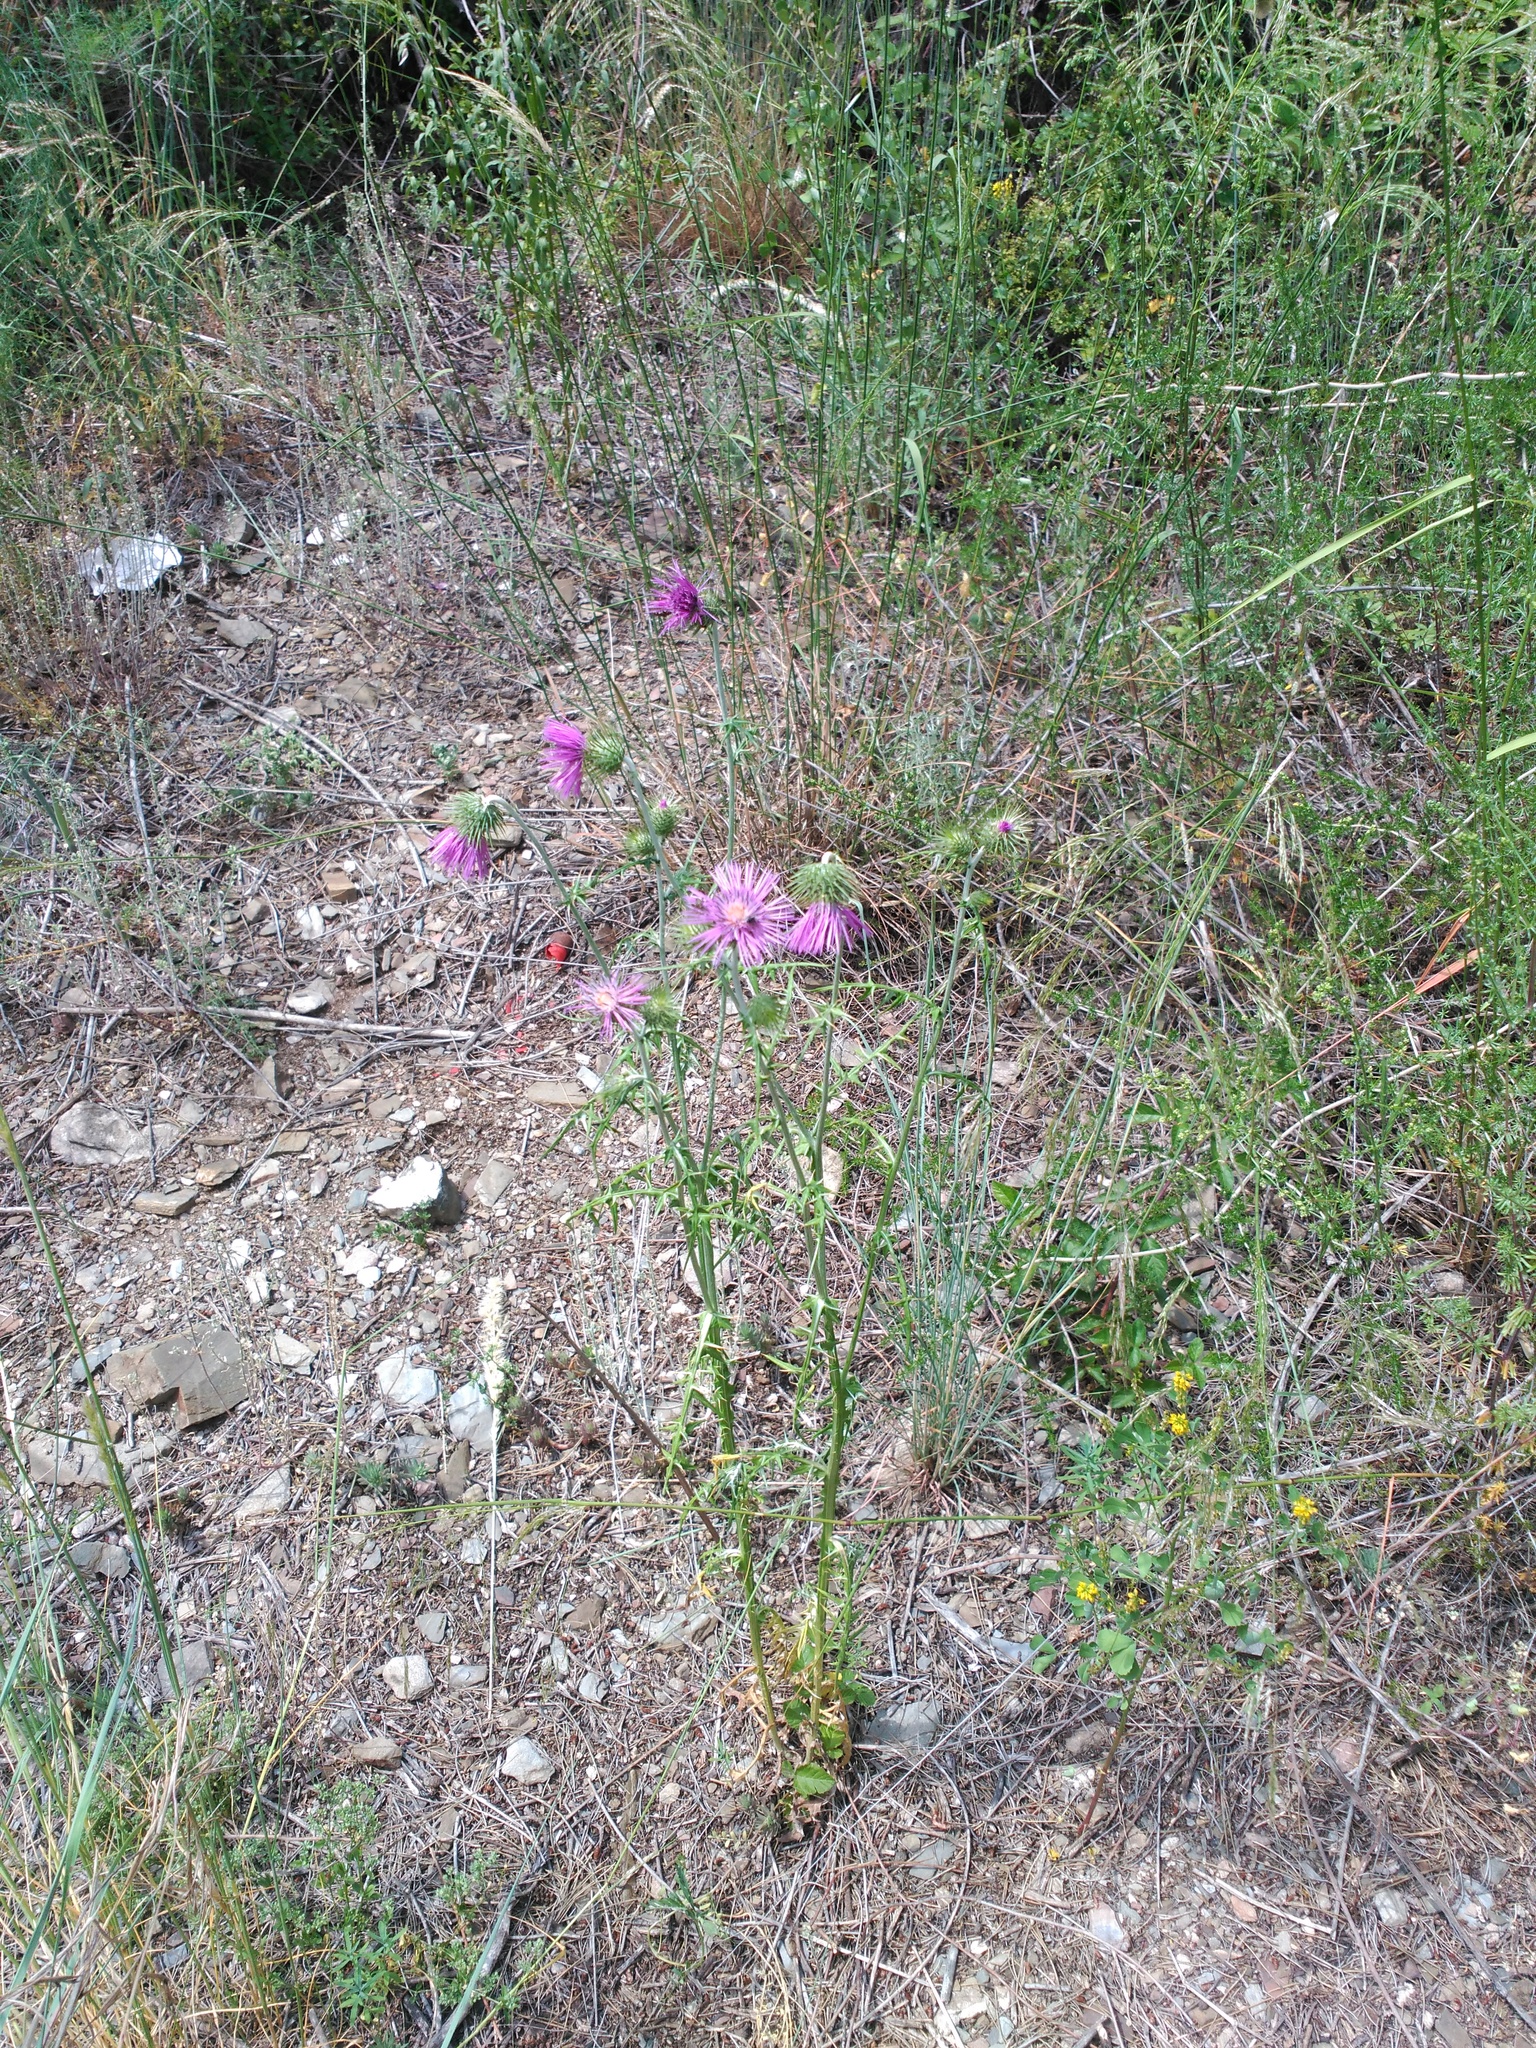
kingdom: Plantae
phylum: Tracheophyta
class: Magnoliopsida
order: Asterales
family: Asteraceae
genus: Galactites
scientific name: Galactites tomentosa
